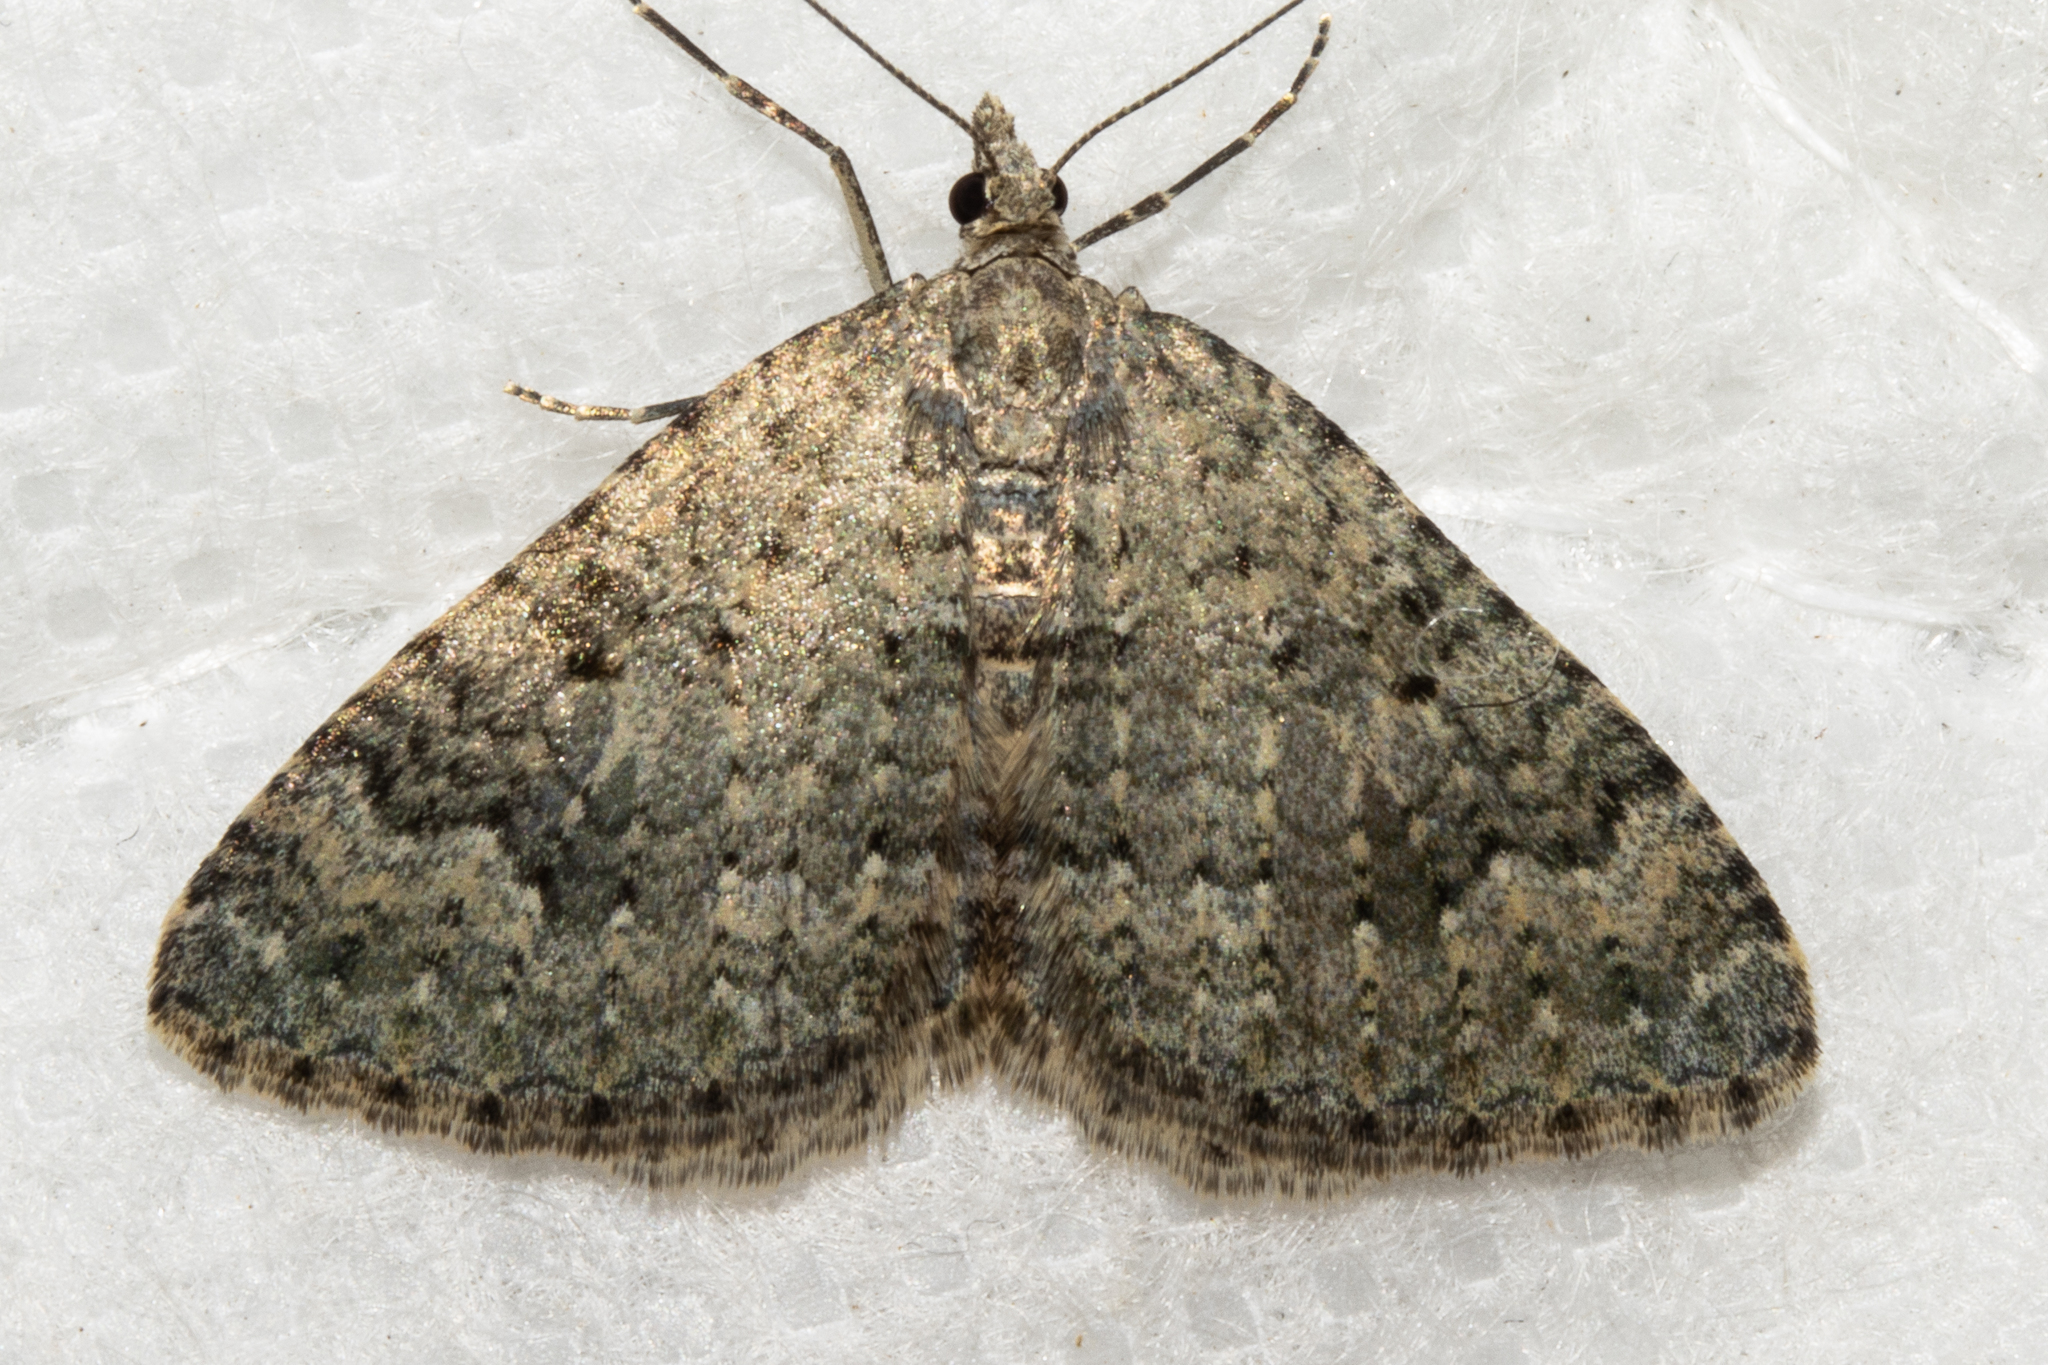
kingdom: Animalia
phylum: Arthropoda
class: Insecta
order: Lepidoptera
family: Geometridae
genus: Helastia
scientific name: Helastia corcularia
